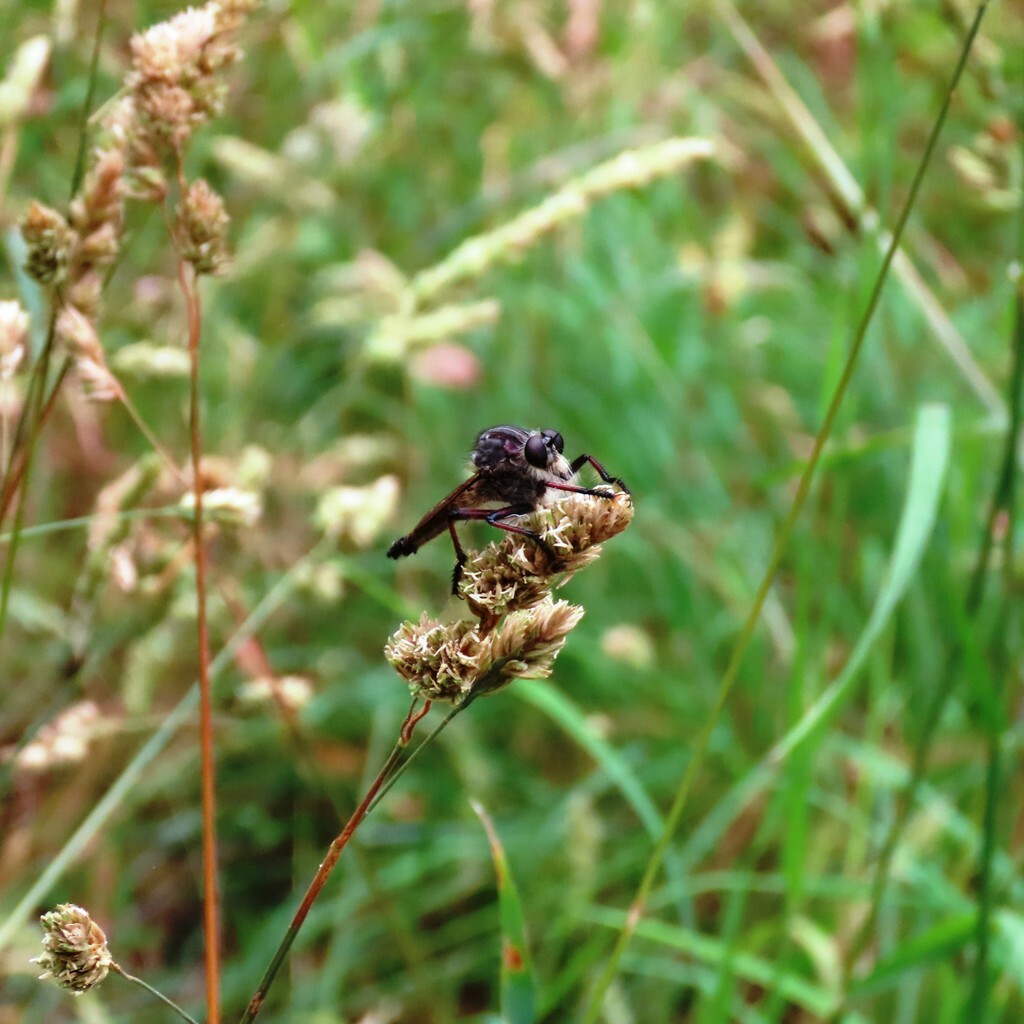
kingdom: Animalia
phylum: Arthropoda
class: Insecta
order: Diptera
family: Asilidae
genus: Neoaratus
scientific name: Neoaratus hercules
